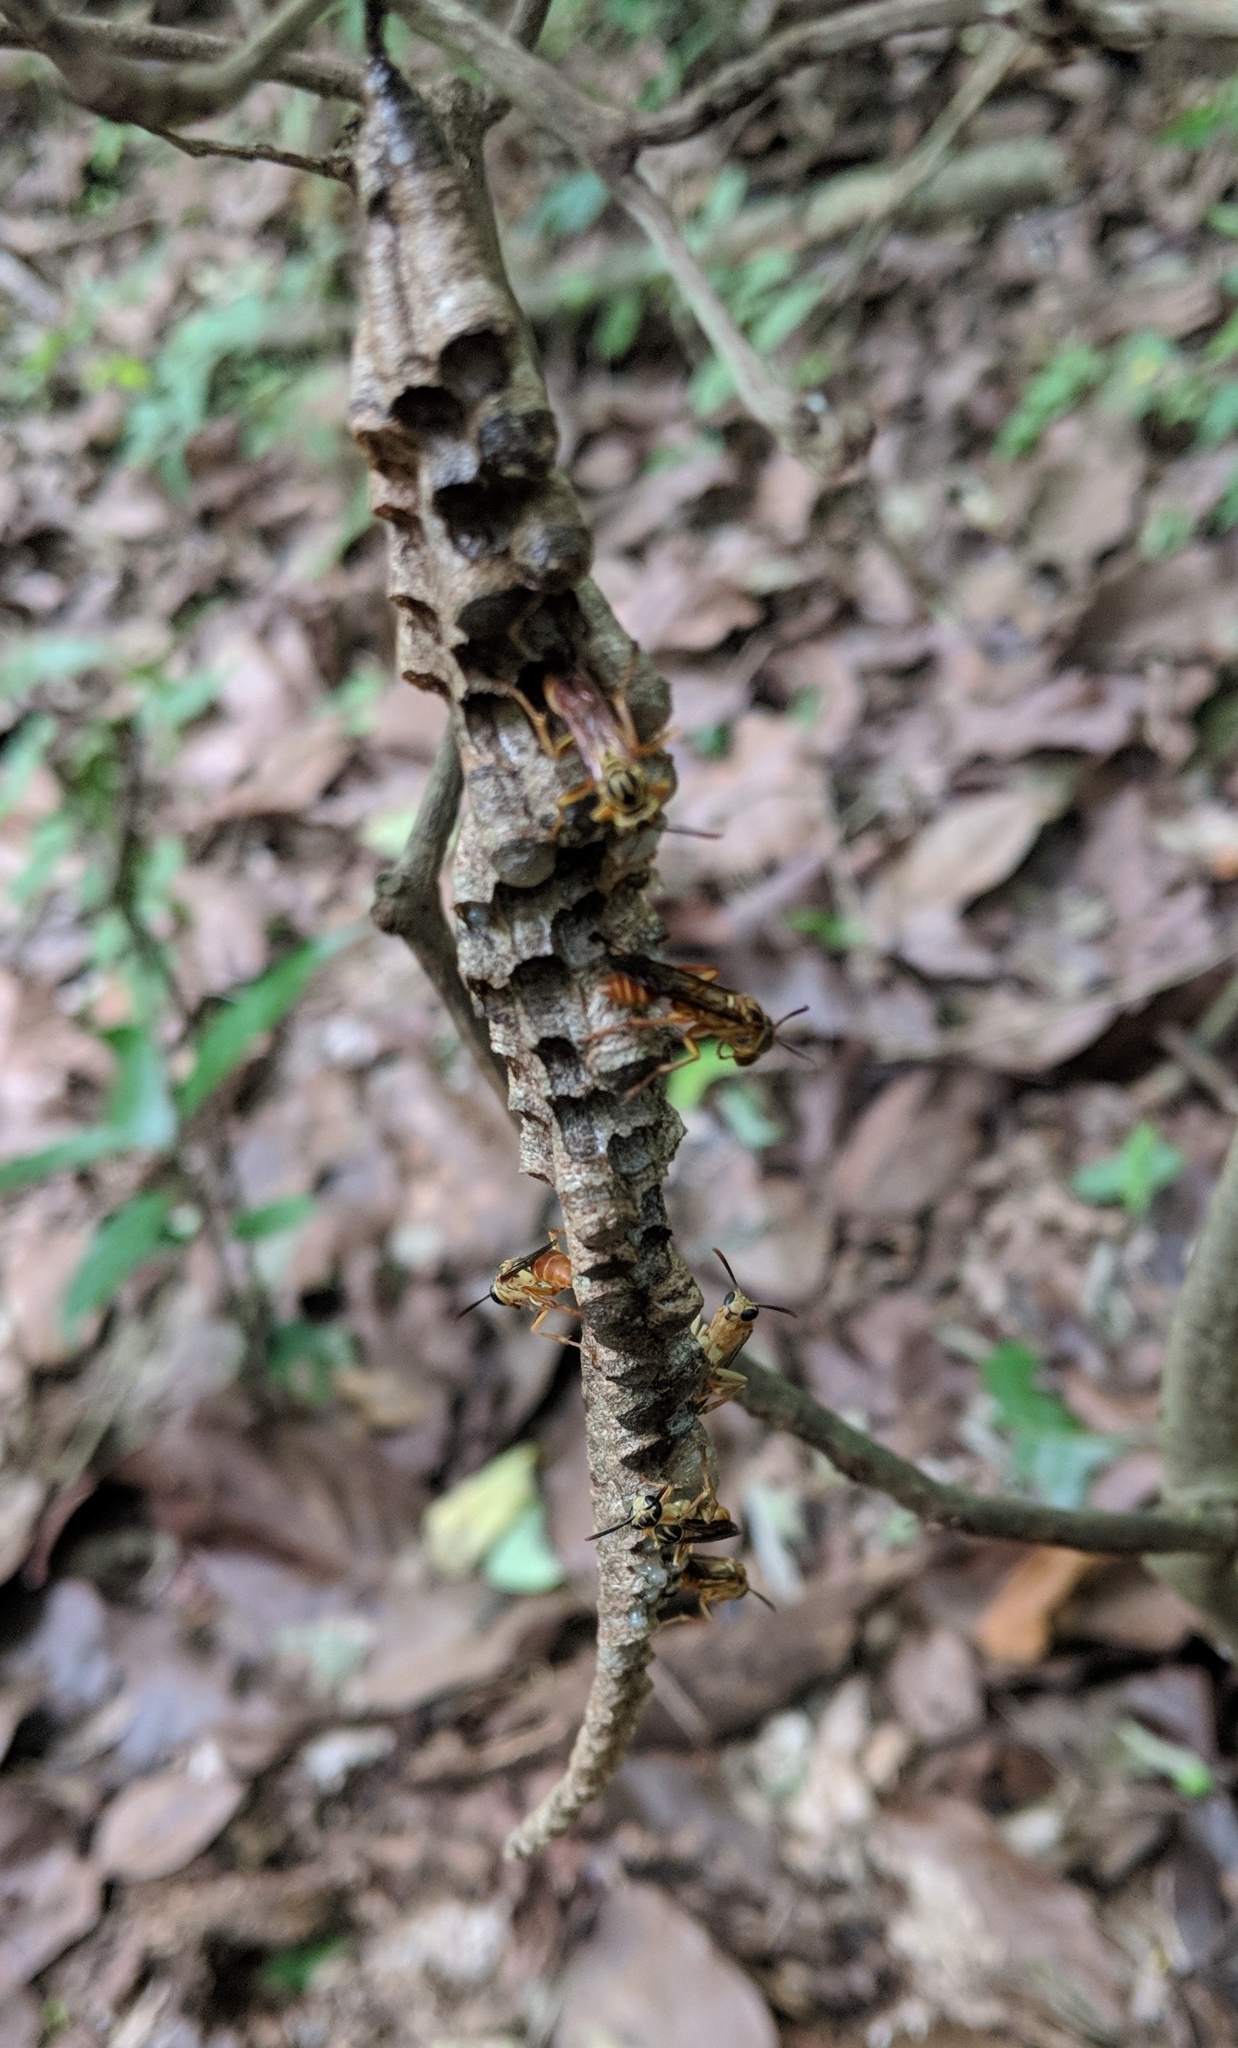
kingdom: Animalia
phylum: Arthropoda
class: Insecta
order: Hymenoptera
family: Vespidae
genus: Mischocyttarus
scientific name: Mischocyttarus angulatus
